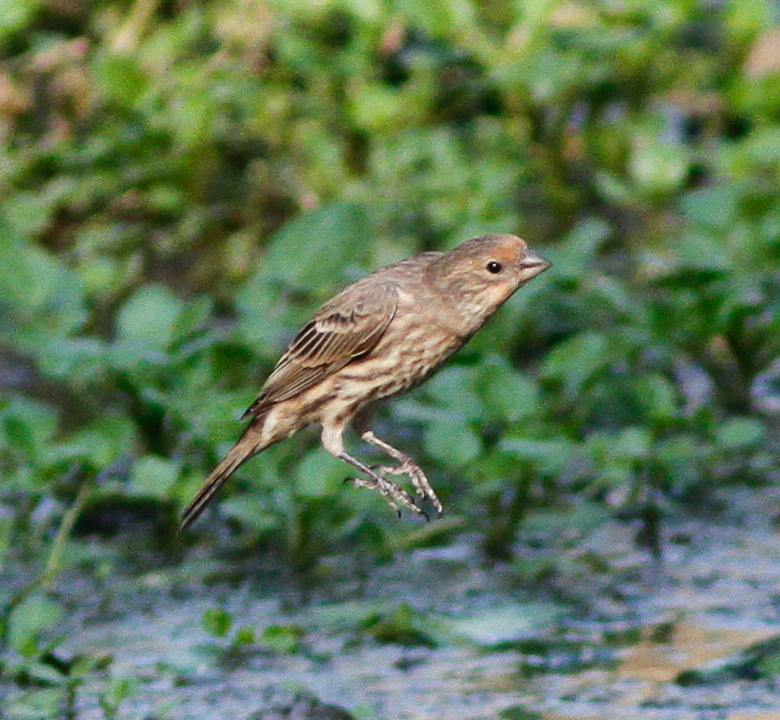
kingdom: Animalia
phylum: Chordata
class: Aves
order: Passeriformes
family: Fringillidae
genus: Haemorhous
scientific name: Haemorhous mexicanus
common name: House finch
